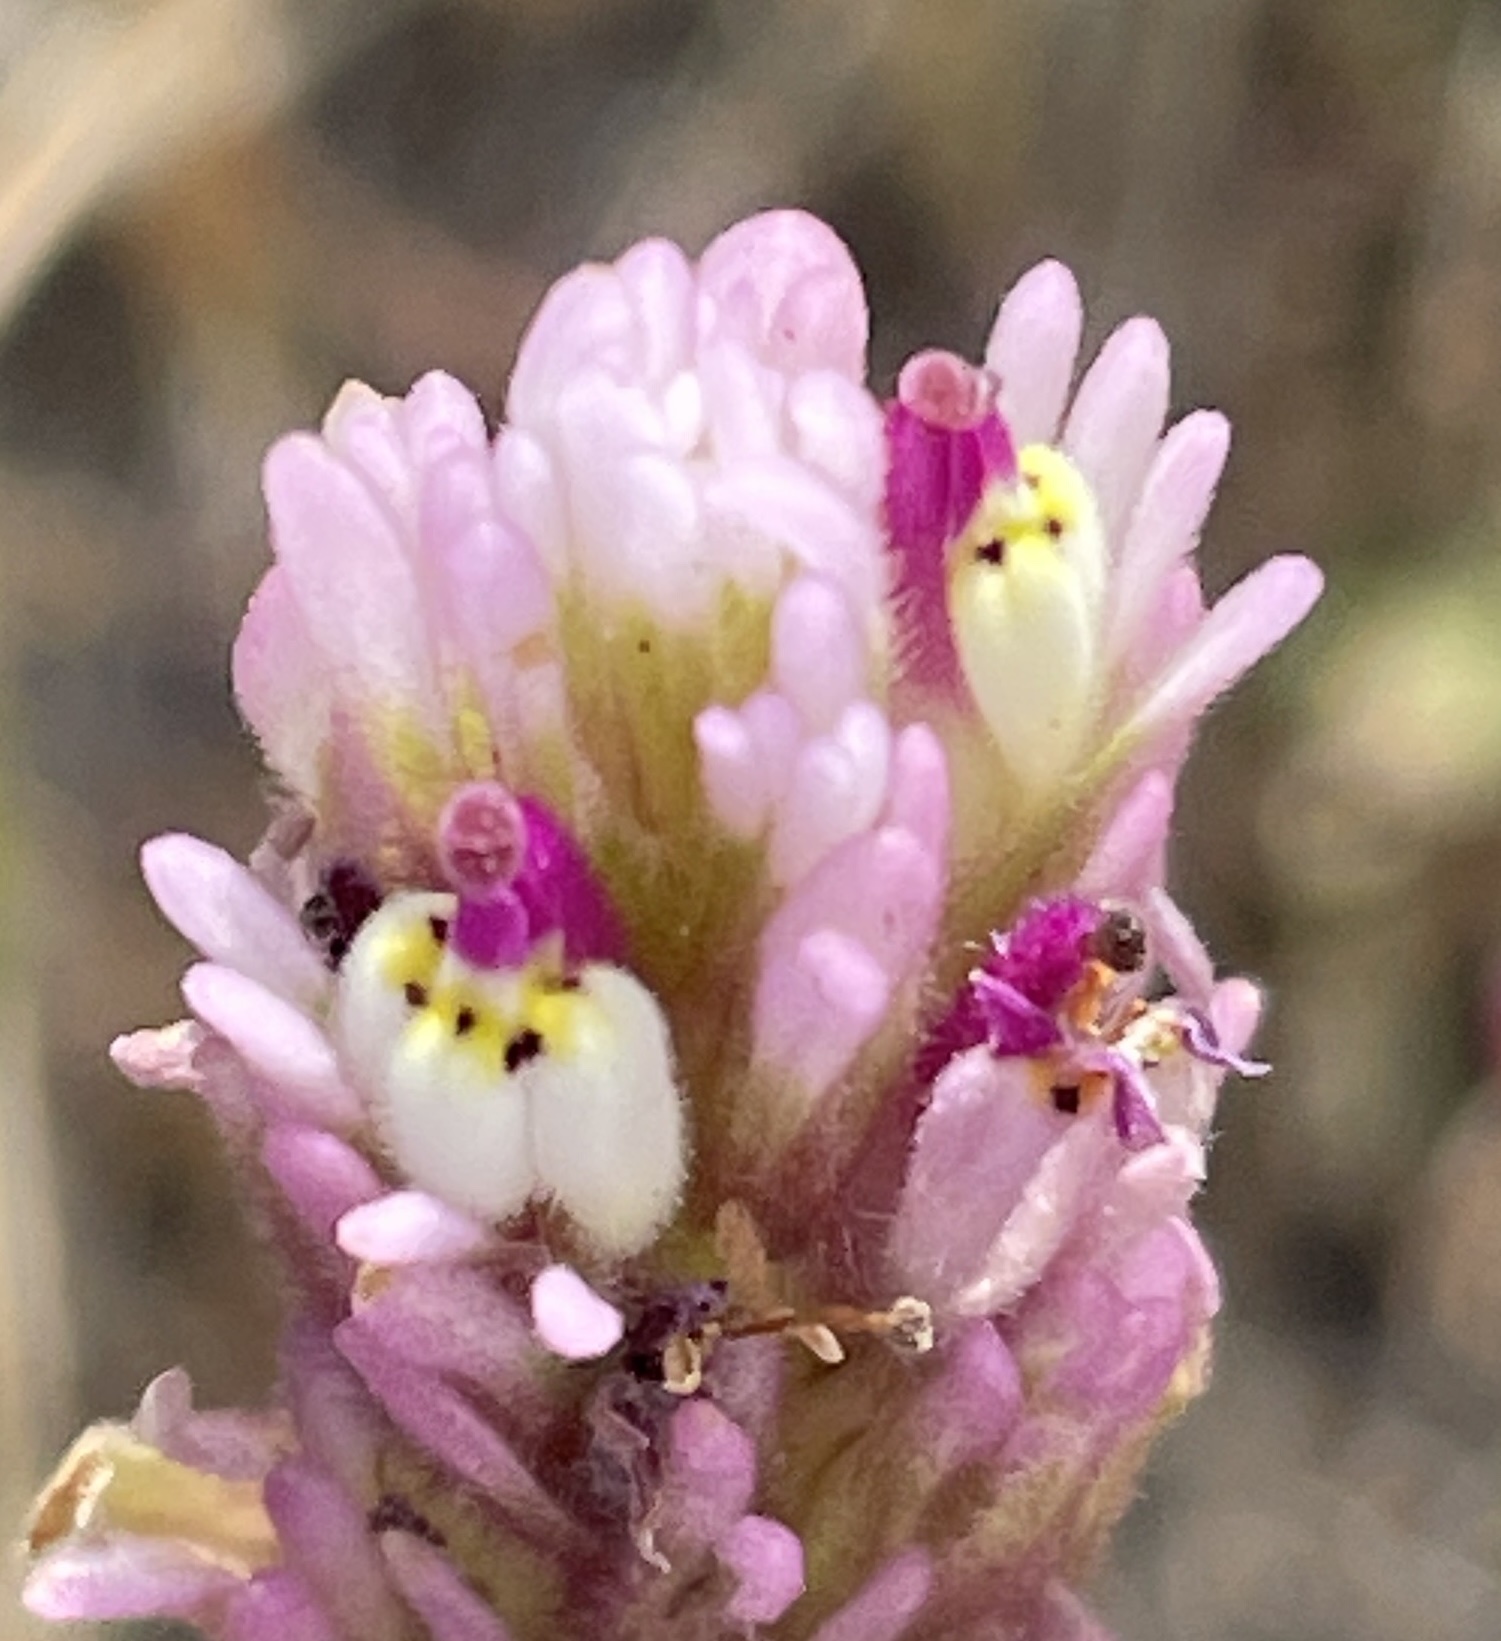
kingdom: Plantae
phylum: Tracheophyta
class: Magnoliopsida
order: Lamiales
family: Orobanchaceae
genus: Castilleja
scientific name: Castilleja densiflora
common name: Dense-flower indian paintbrush
